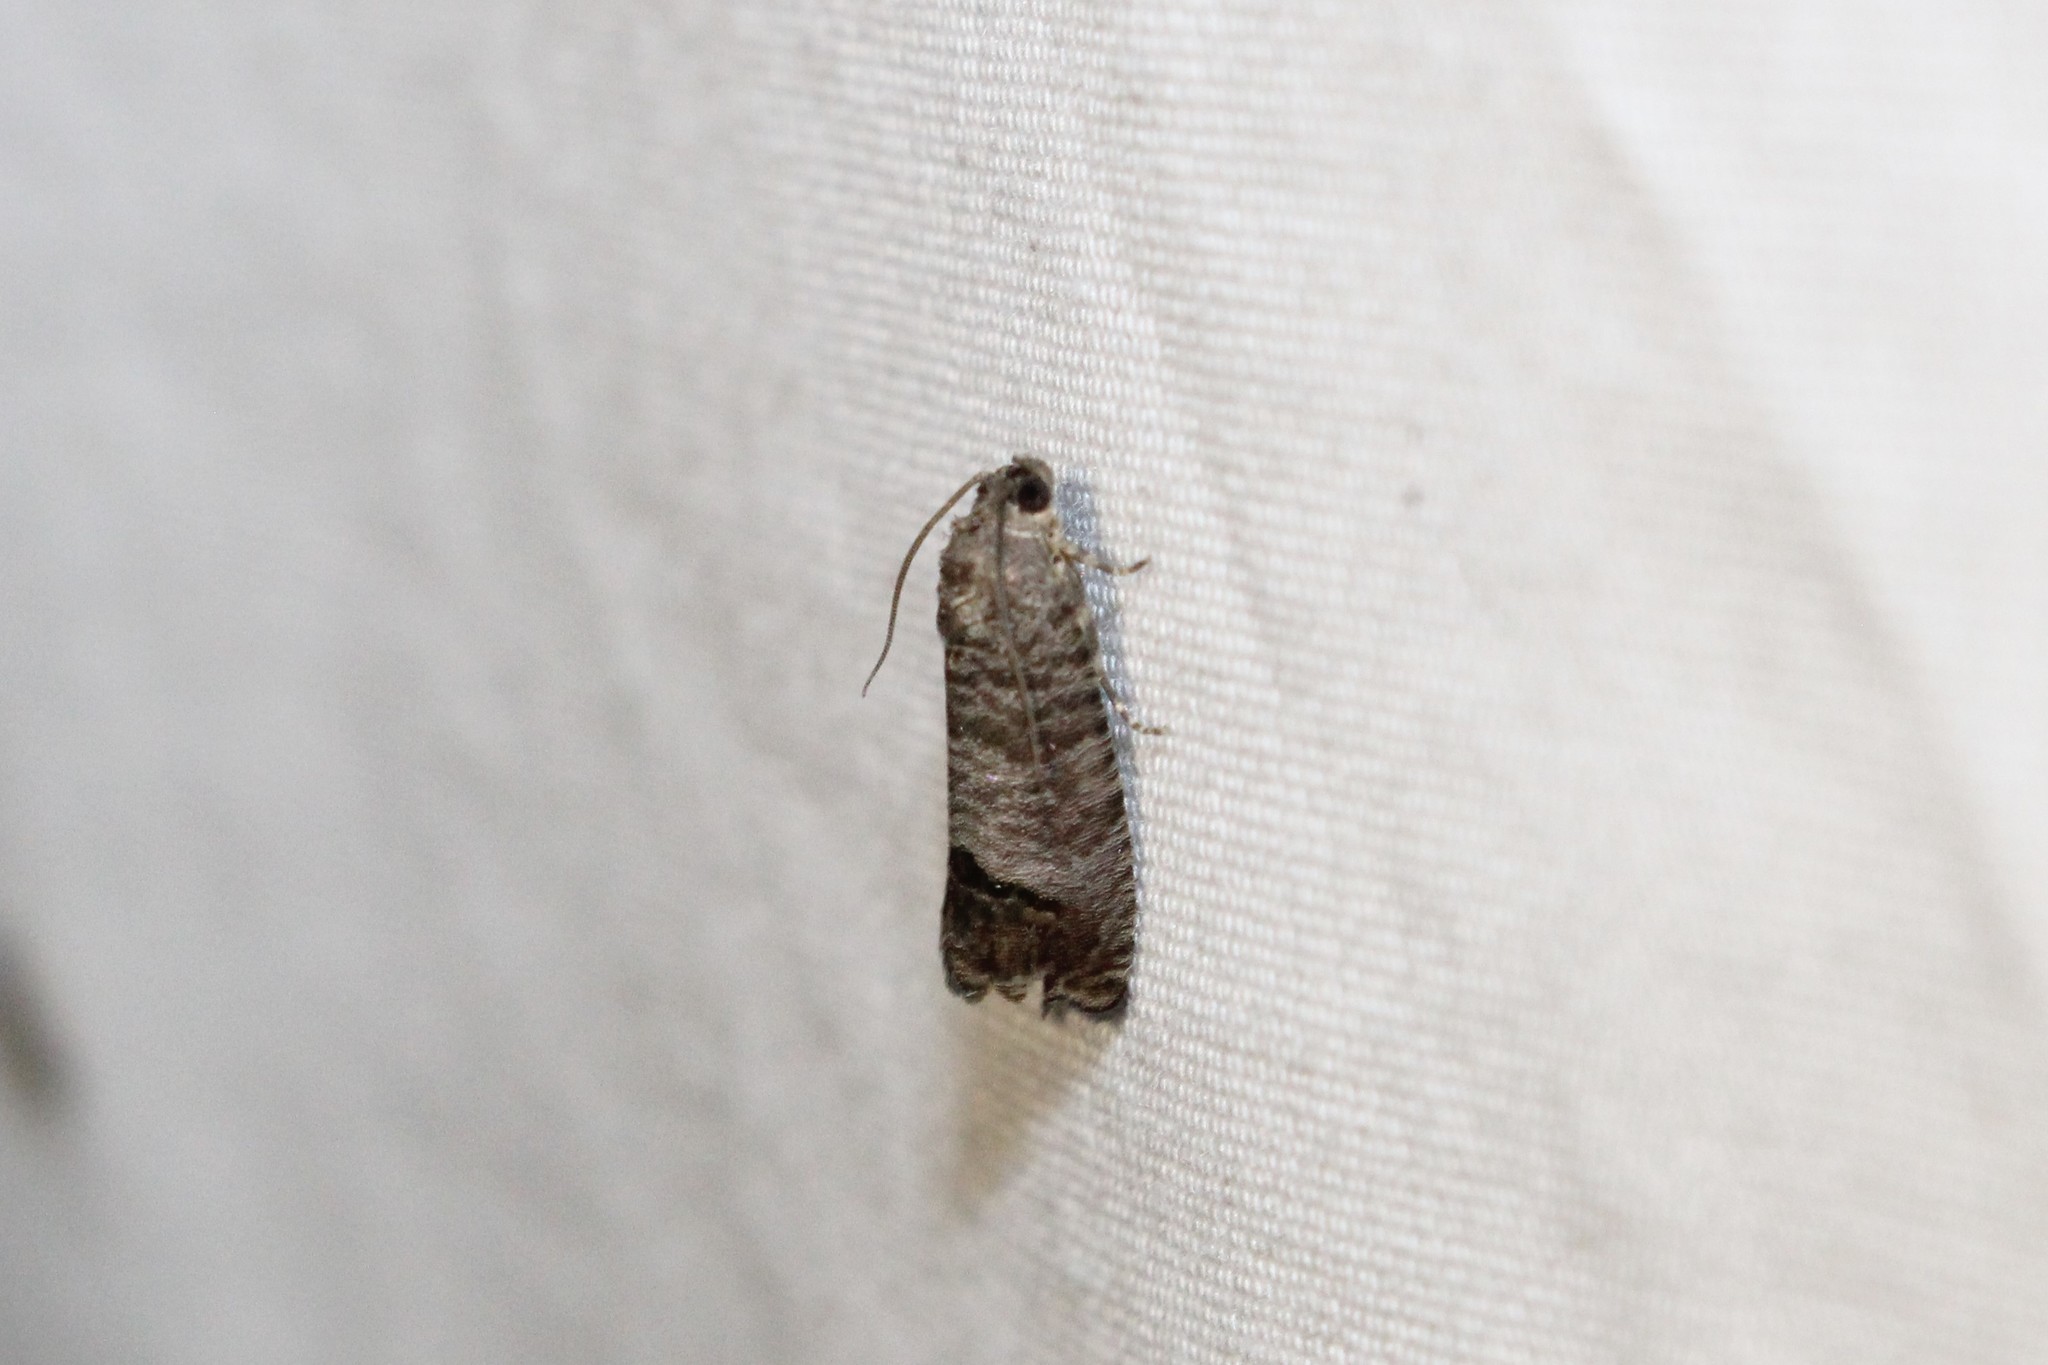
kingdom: Animalia
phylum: Arthropoda
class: Insecta
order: Lepidoptera
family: Tortricidae
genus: Cydia
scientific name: Cydia pomonella
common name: Codling moth
